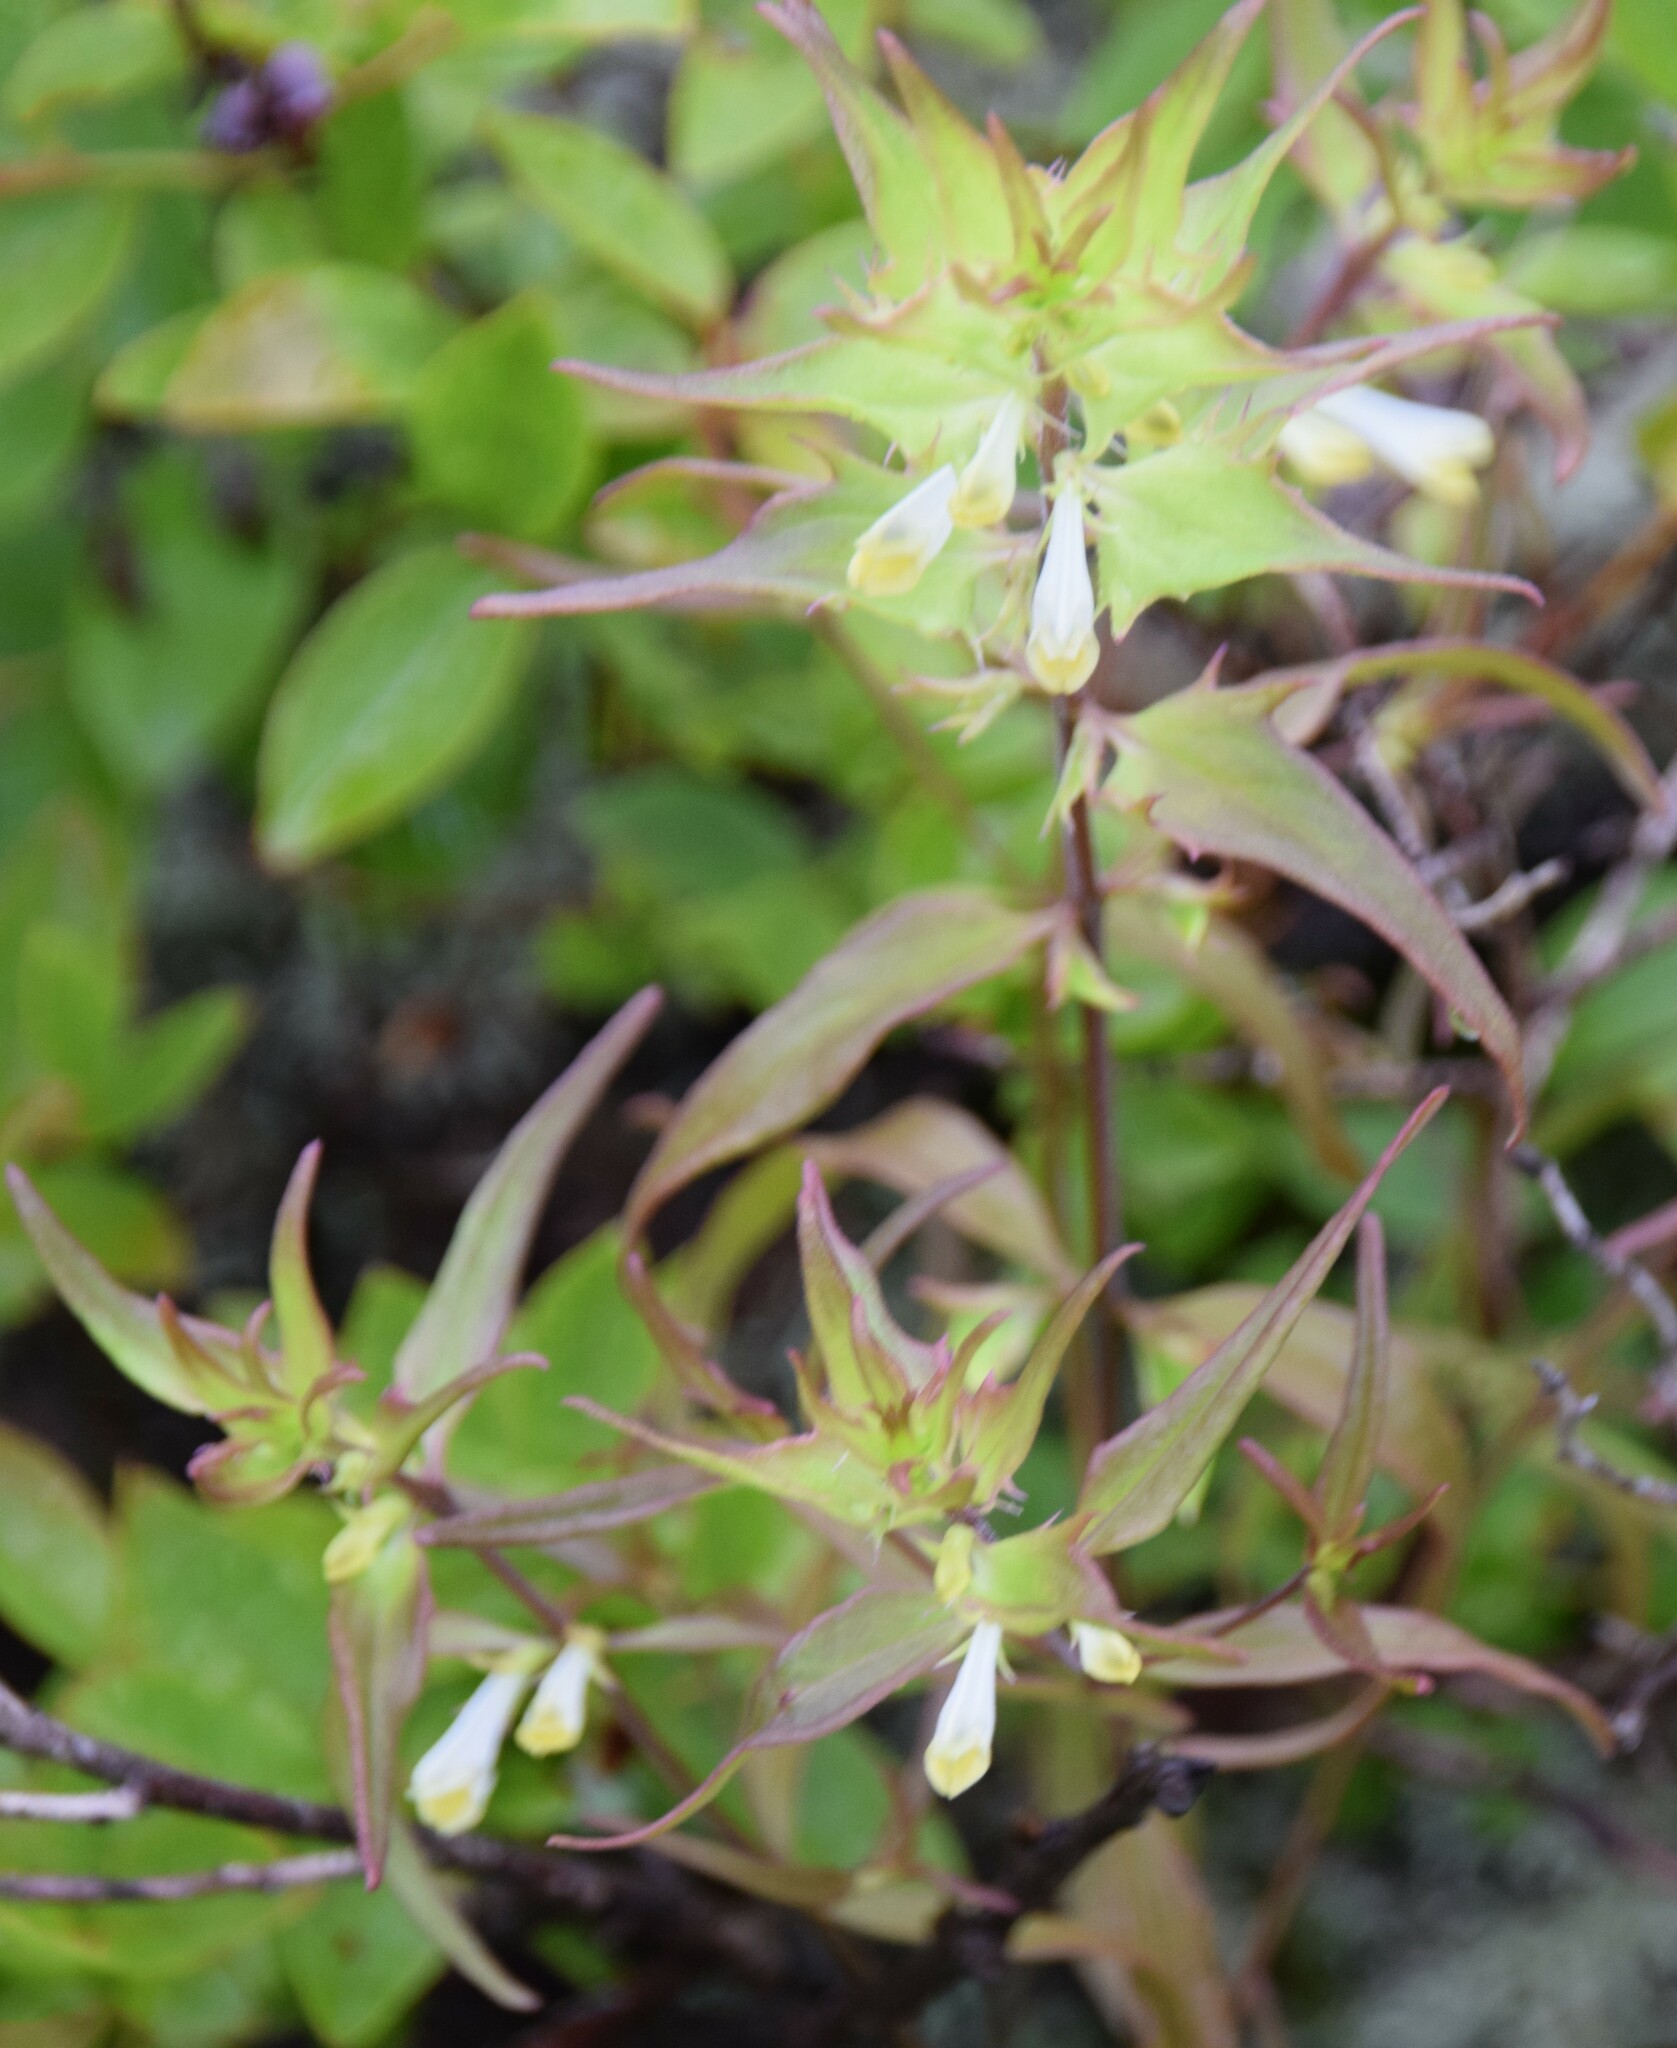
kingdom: Plantae
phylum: Tracheophyta
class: Magnoliopsida
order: Lamiales
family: Orobanchaceae
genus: Melampyrum
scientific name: Melampyrum lineare
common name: American cow-wheat
